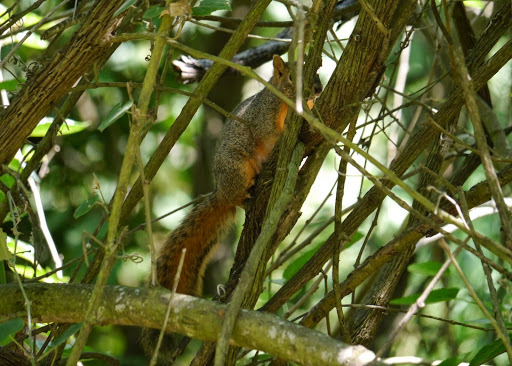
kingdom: Animalia
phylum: Chordata
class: Mammalia
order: Rodentia
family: Sciuridae
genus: Sciurus
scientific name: Sciurus niger
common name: Fox squirrel
